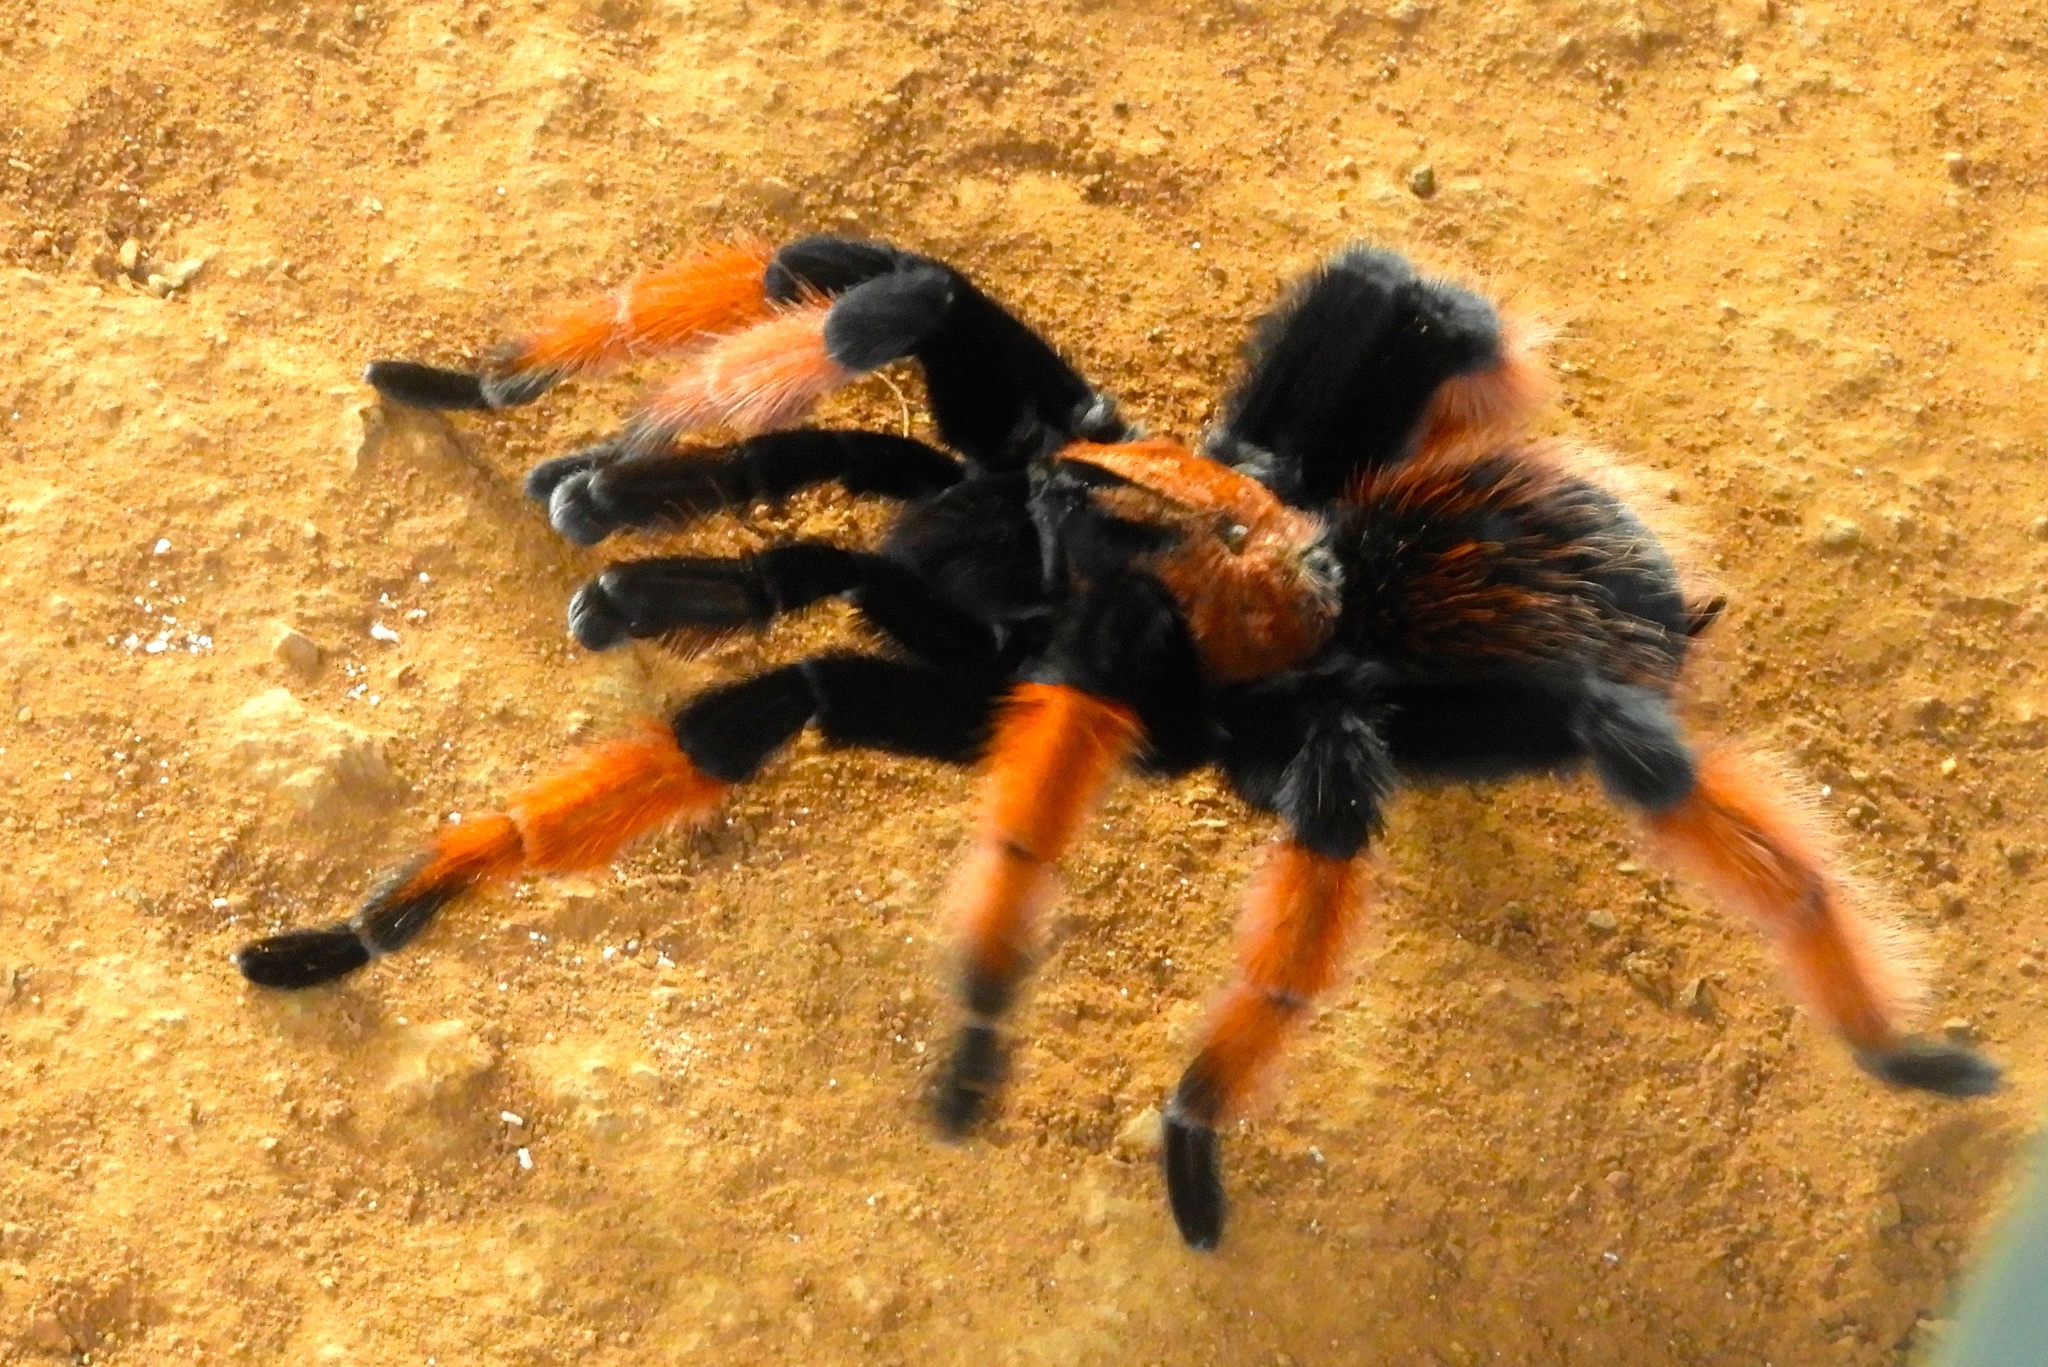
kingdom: Animalia
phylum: Arthropoda
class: Arachnida
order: Araneae
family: Theraphosidae
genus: Brachypelma
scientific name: Brachypelma emilia
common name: Mexican redleg
